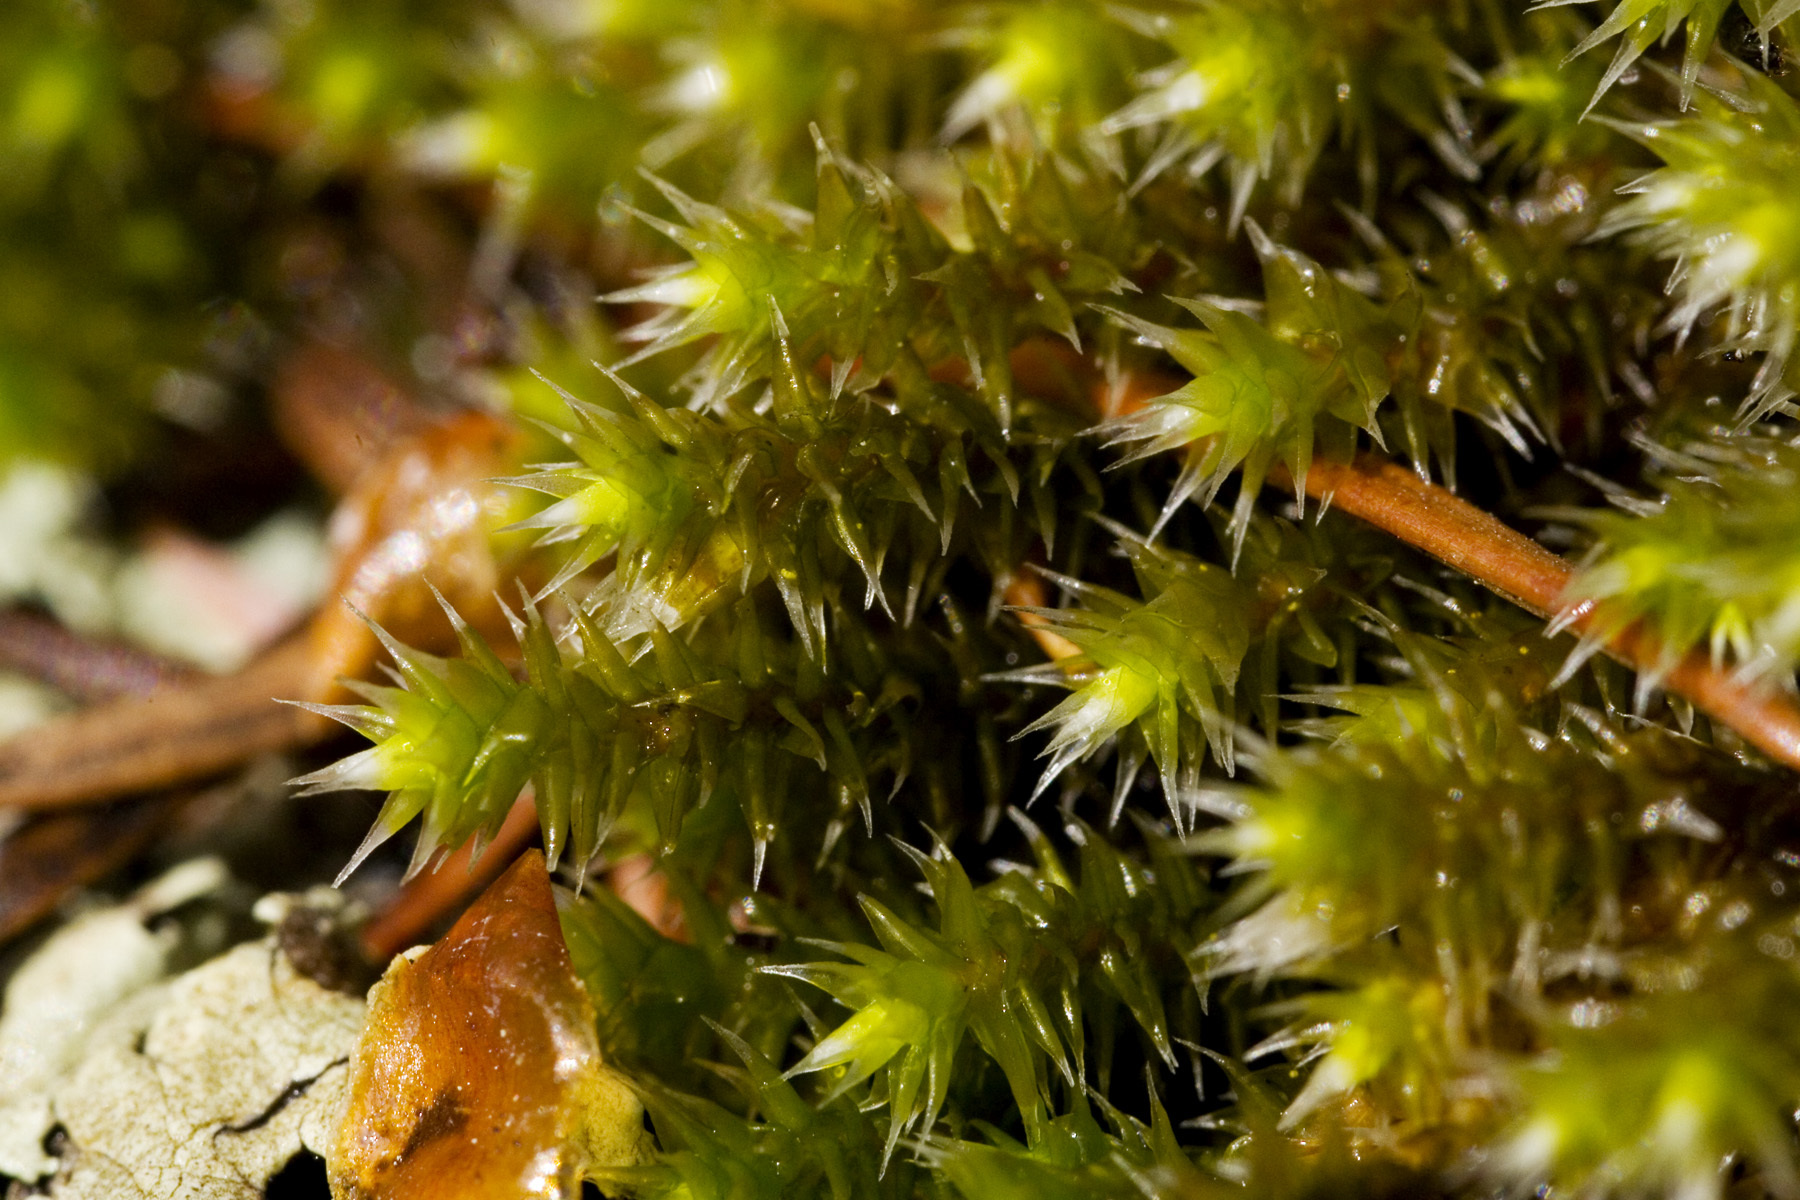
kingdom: Plantae
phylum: Bryophyta
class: Bryopsida
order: Hedwigiales
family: Hedwigiaceae
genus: Hedwigia
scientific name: Hedwigia ciliata
